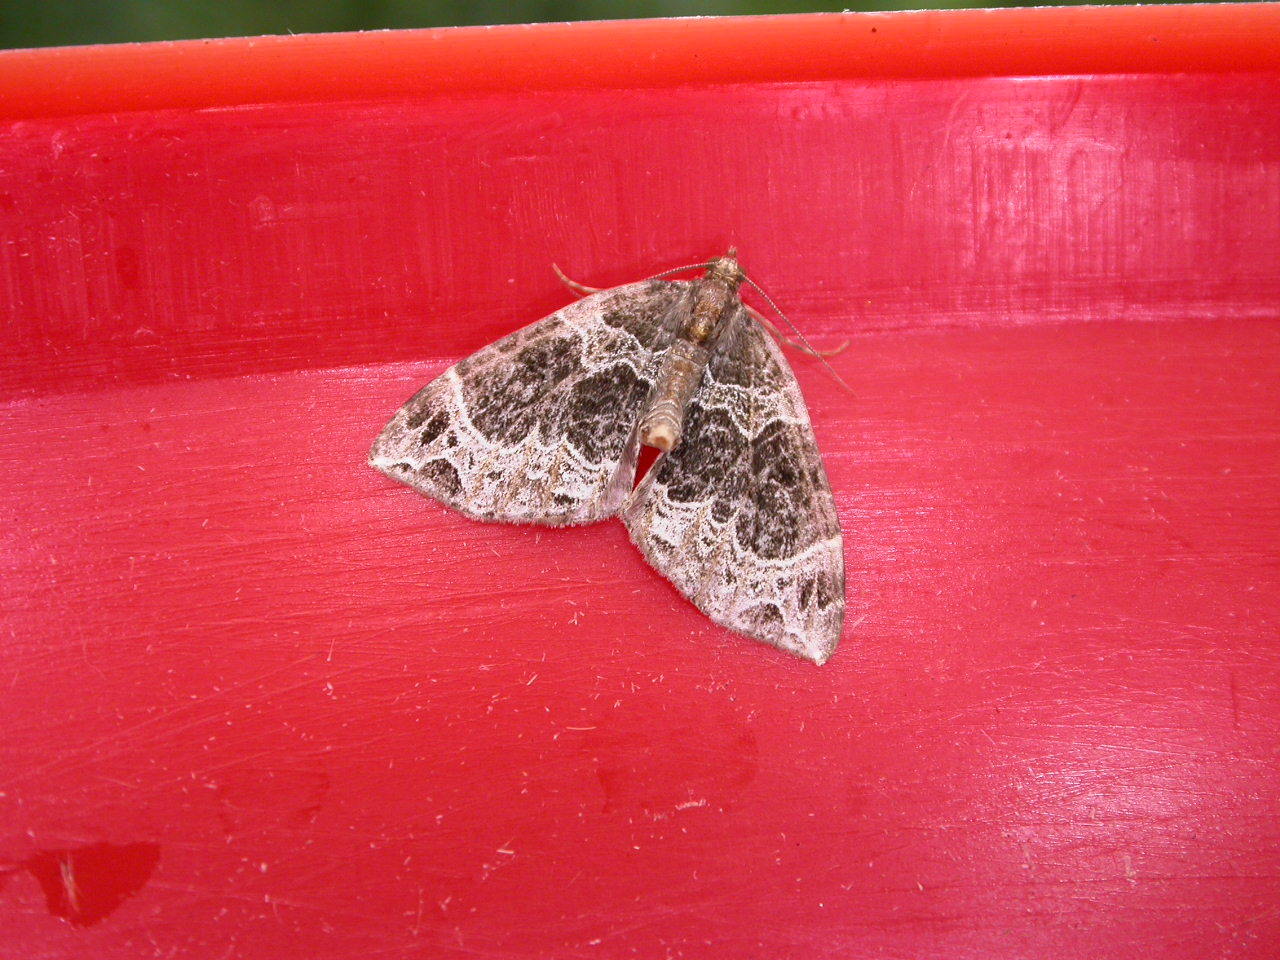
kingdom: Animalia
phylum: Arthropoda
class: Insecta
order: Lepidoptera
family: Geometridae
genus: Ecliptopera
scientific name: Ecliptopera silaceata
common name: Small phoenix
